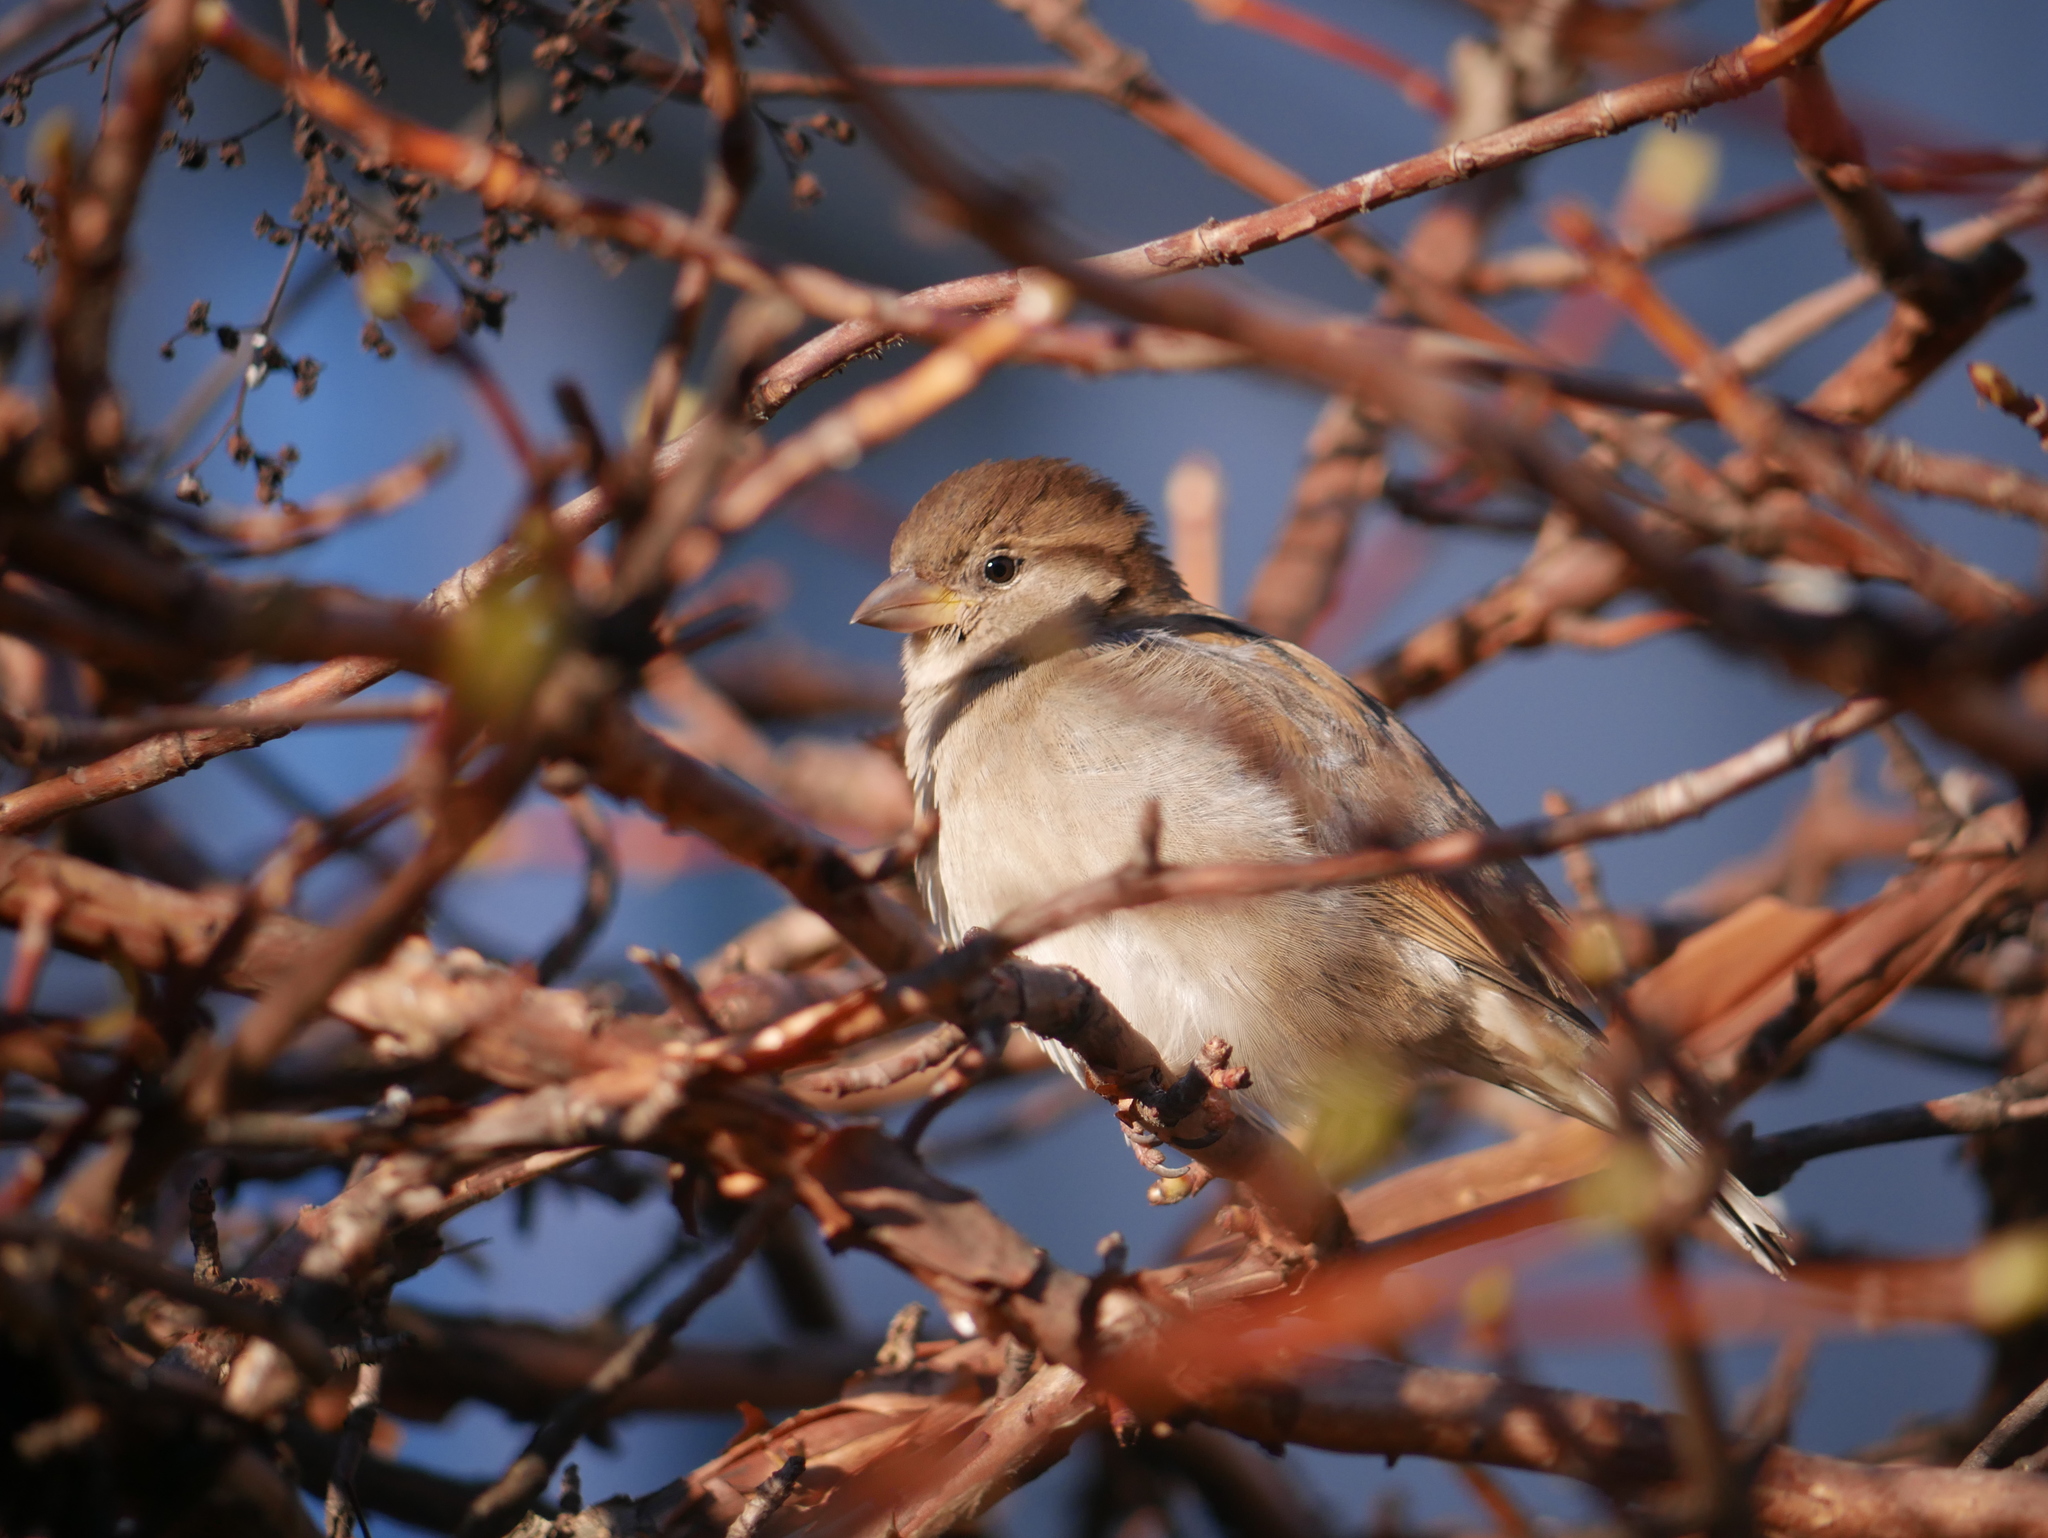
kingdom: Animalia
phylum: Chordata
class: Aves
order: Passeriformes
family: Passeridae
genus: Passer
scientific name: Passer domesticus
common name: House sparrow
